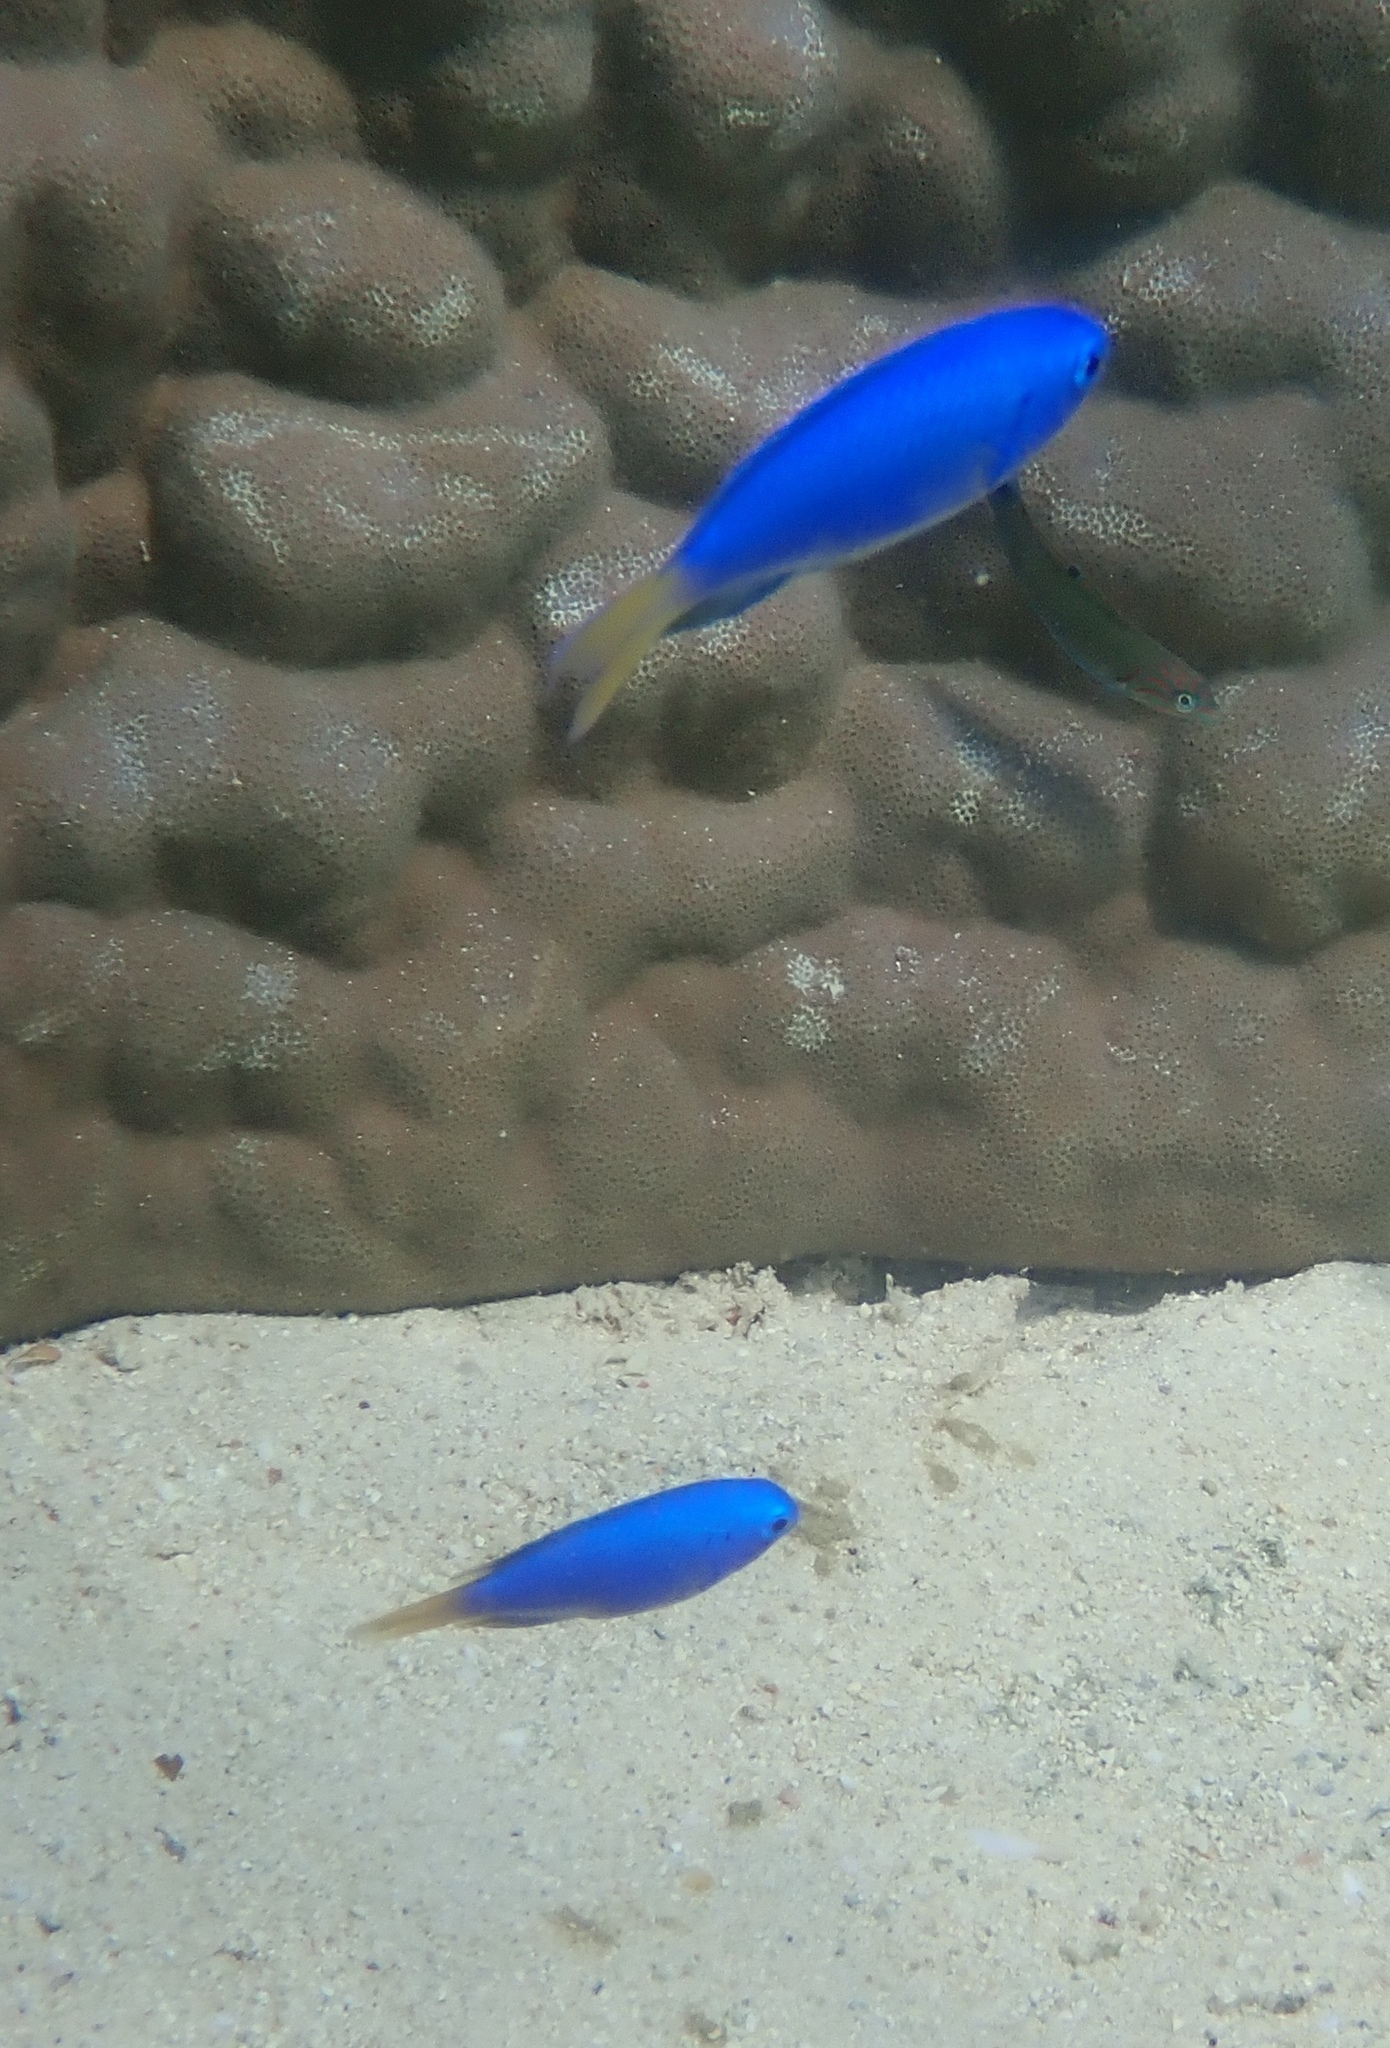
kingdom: Animalia
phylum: Chordata
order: Perciformes
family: Pomacentridae
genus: Pomacentrus
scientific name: Pomacentrus coelestis
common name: Neon damsel
